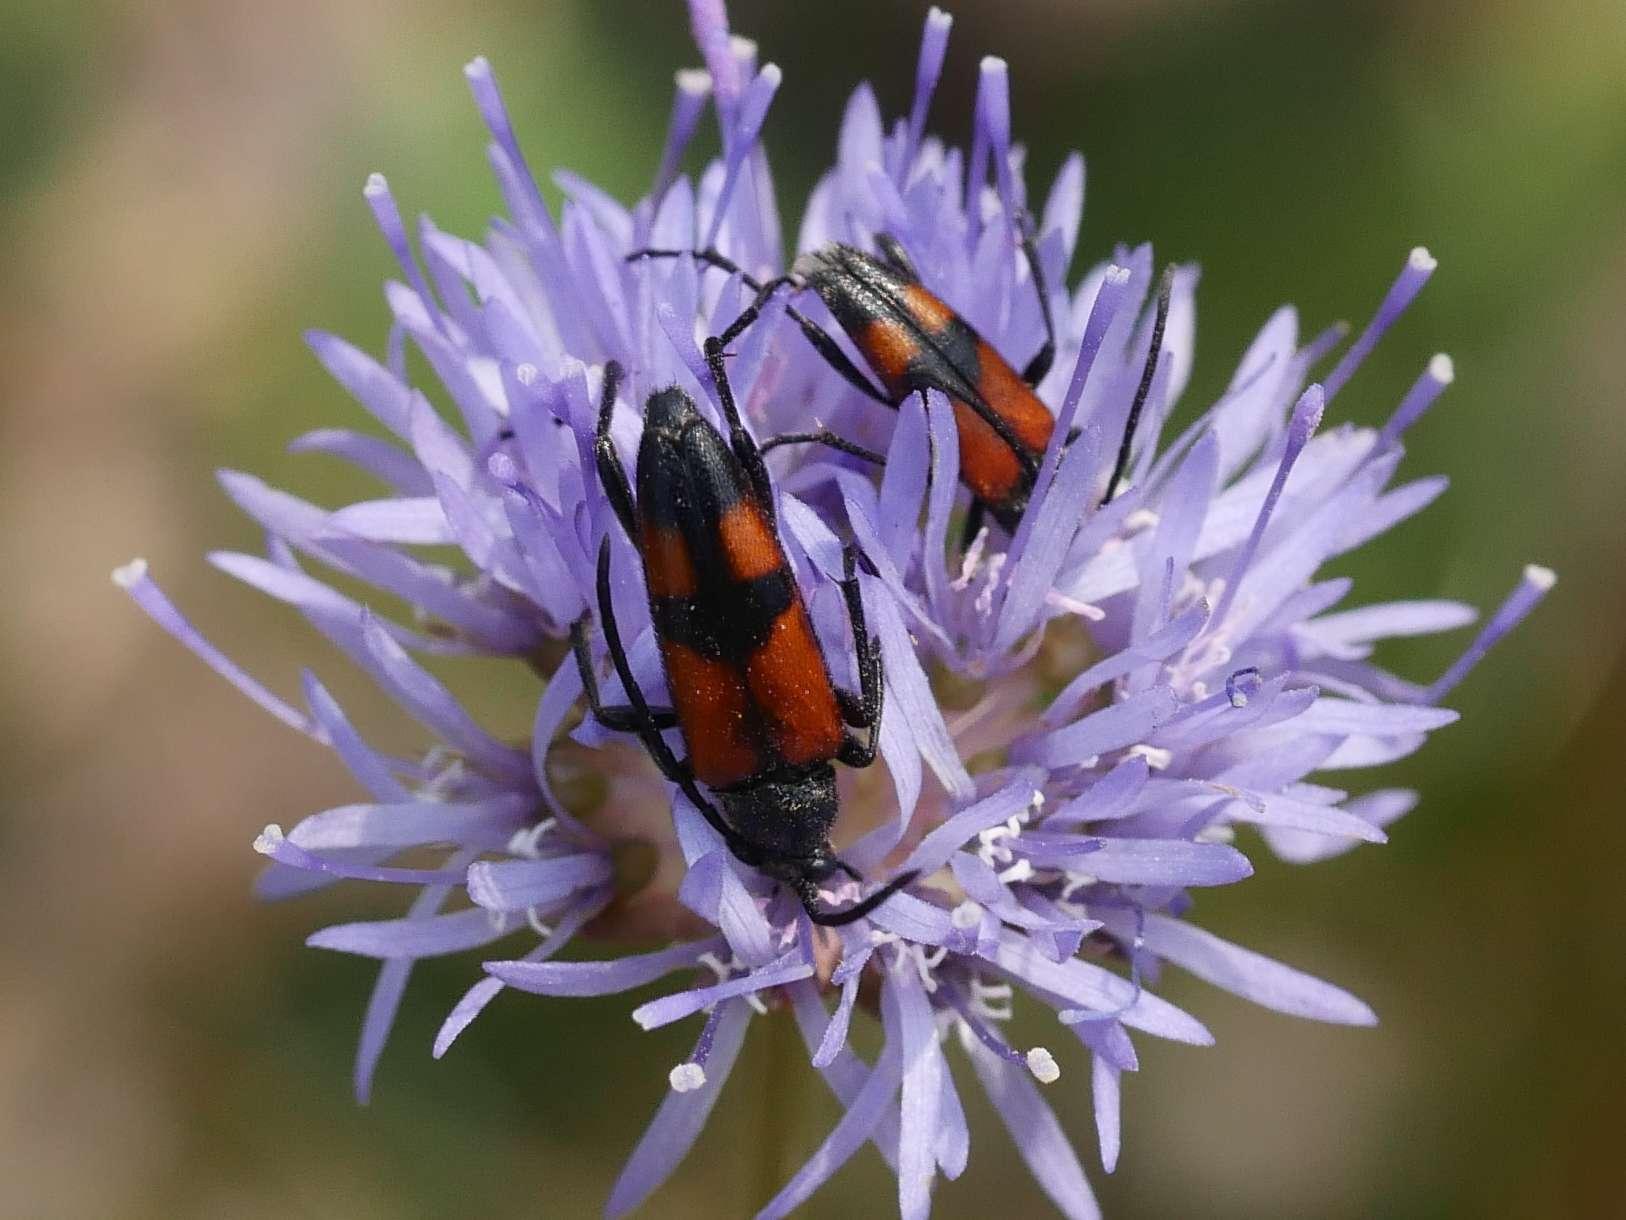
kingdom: Animalia
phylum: Arthropoda
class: Insecta
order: Coleoptera
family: Cerambycidae
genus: Stenurella
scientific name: Stenurella bifasciata
